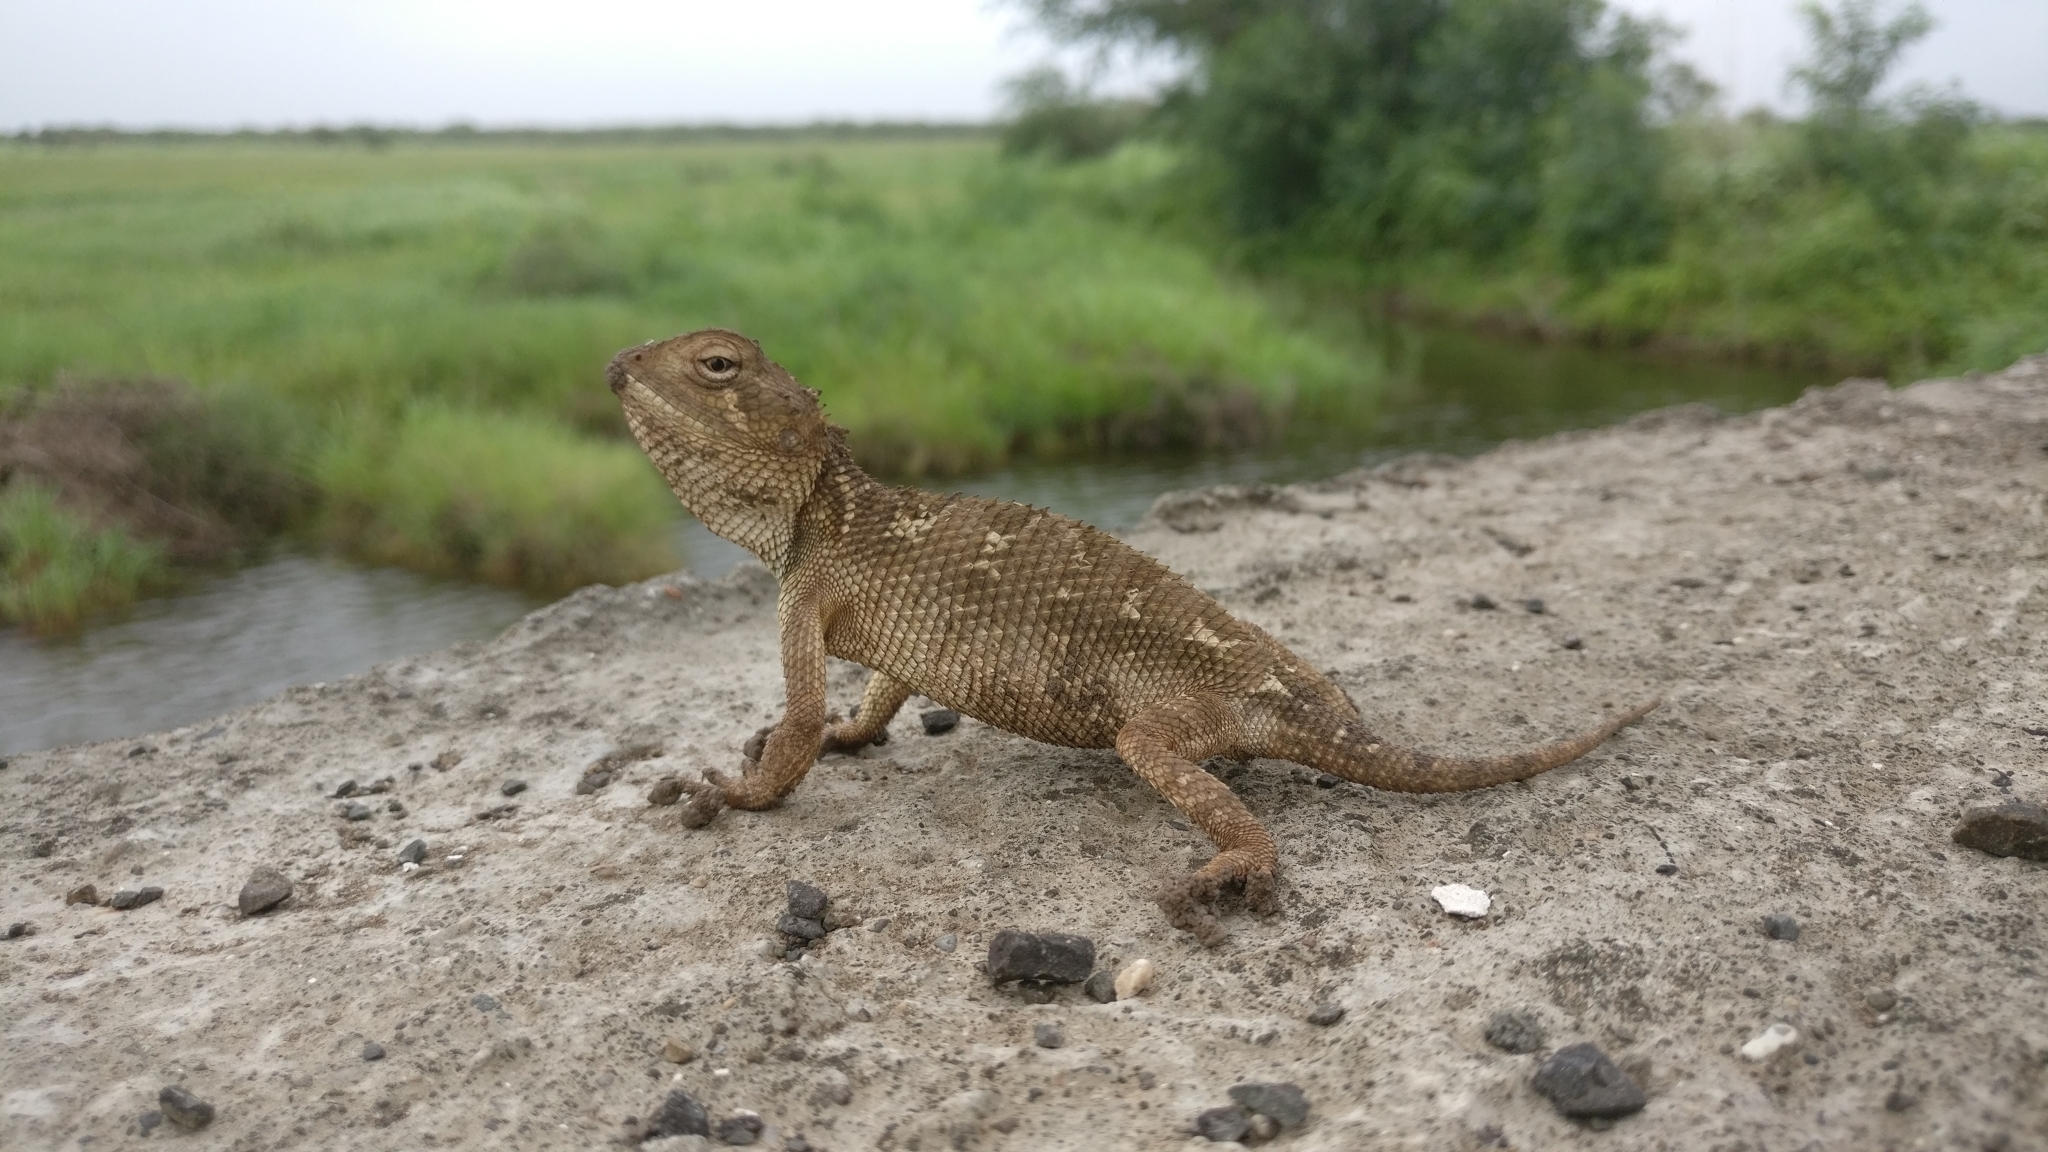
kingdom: Animalia
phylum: Chordata
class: Squamata
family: Agamidae
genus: Calotes
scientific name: Calotes minor
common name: Dwarf rock agama
